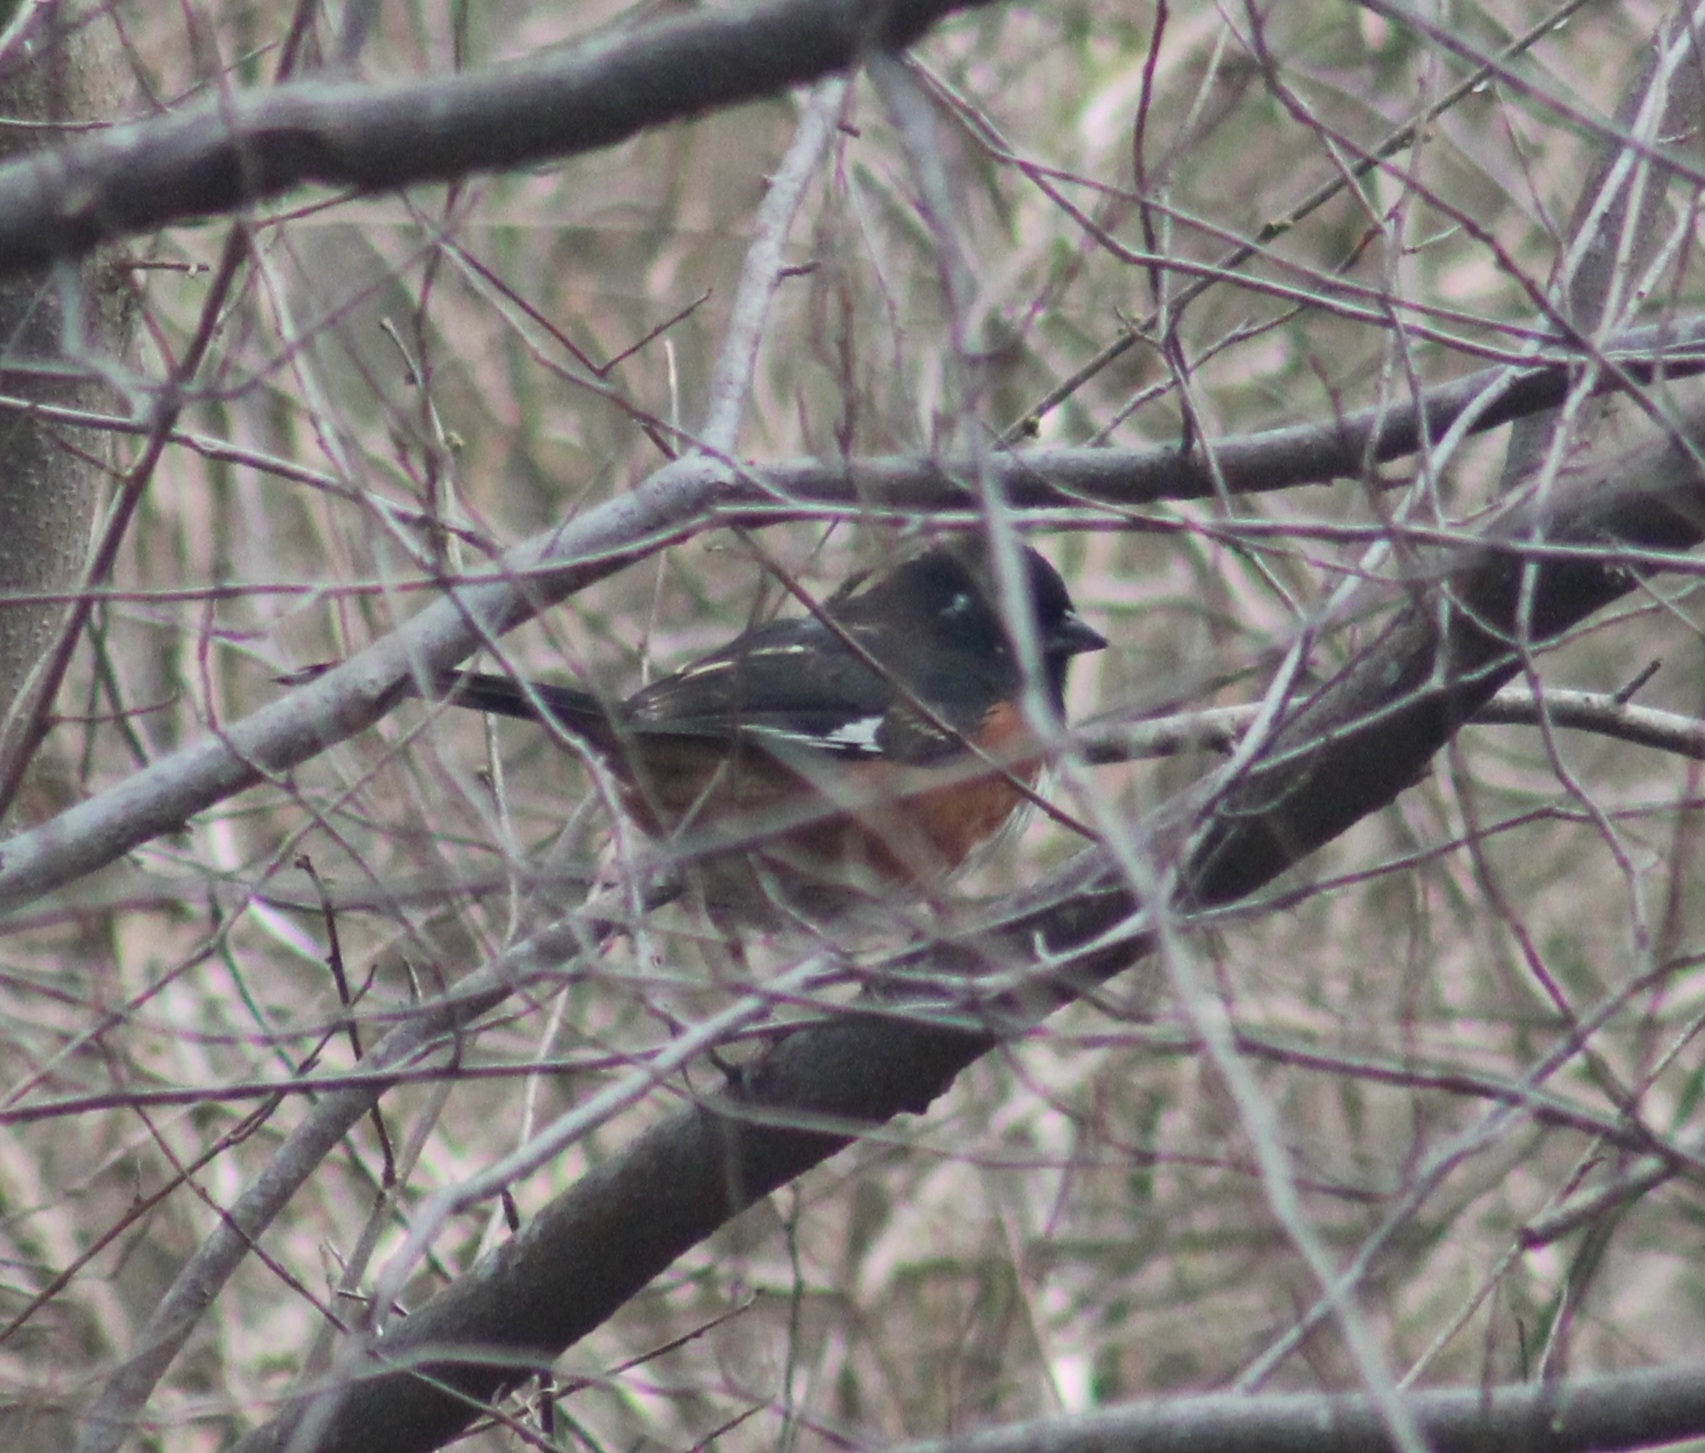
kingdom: Animalia
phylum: Chordata
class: Aves
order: Passeriformes
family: Passerellidae
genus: Pipilo
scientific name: Pipilo erythrophthalmus
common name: Eastern towhee
